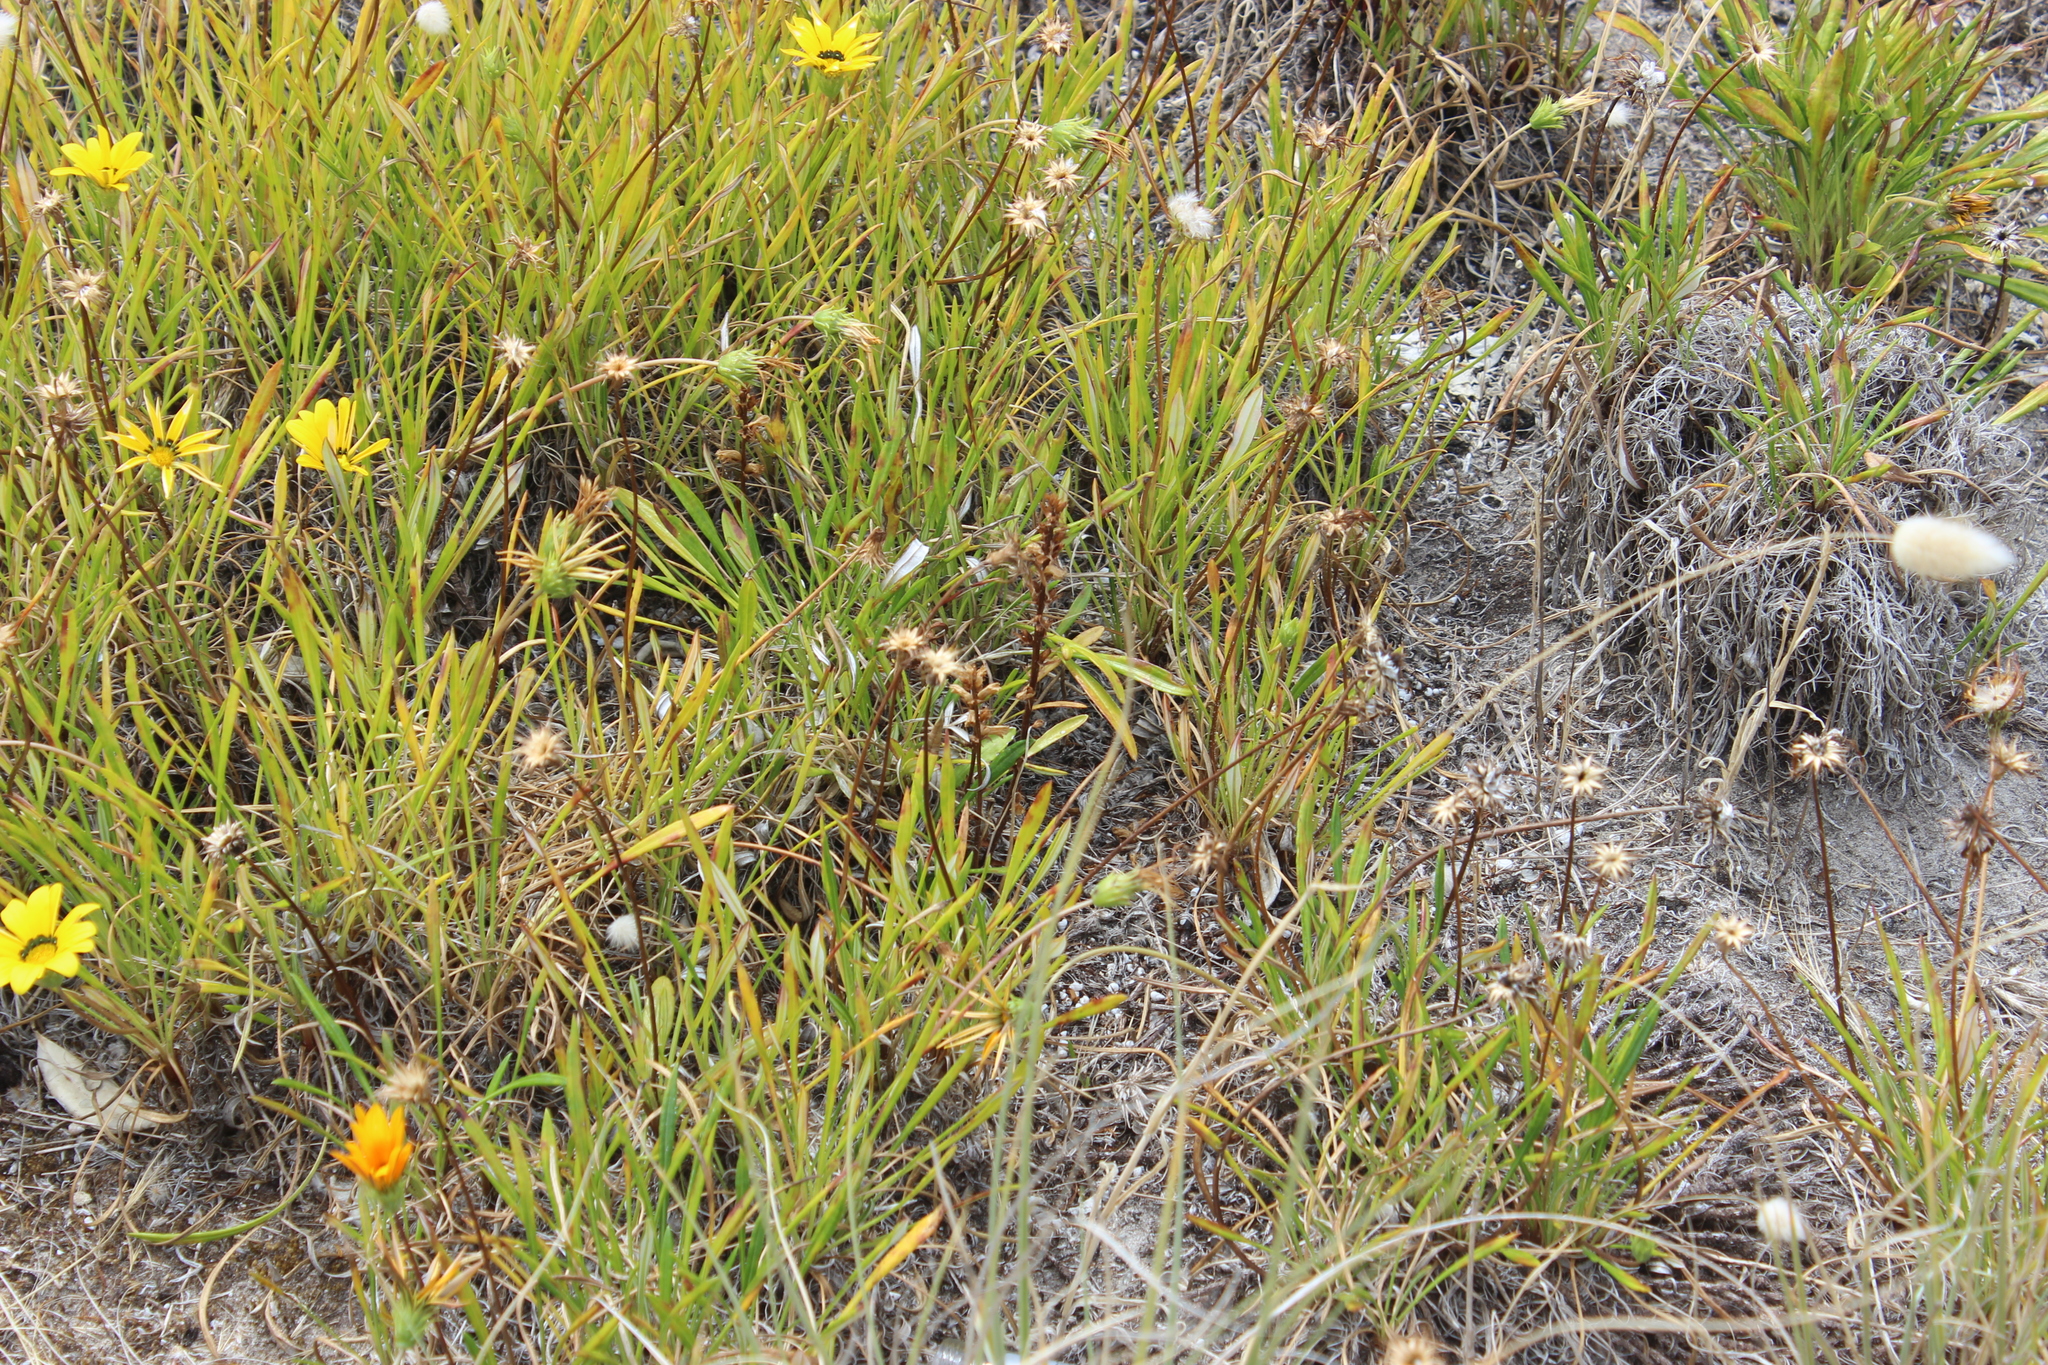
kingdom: Plantae
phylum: Tracheophyta
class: Magnoliopsida
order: Lamiales
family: Orobanchaceae
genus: Orobanche
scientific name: Orobanche minor
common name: Common broomrape
